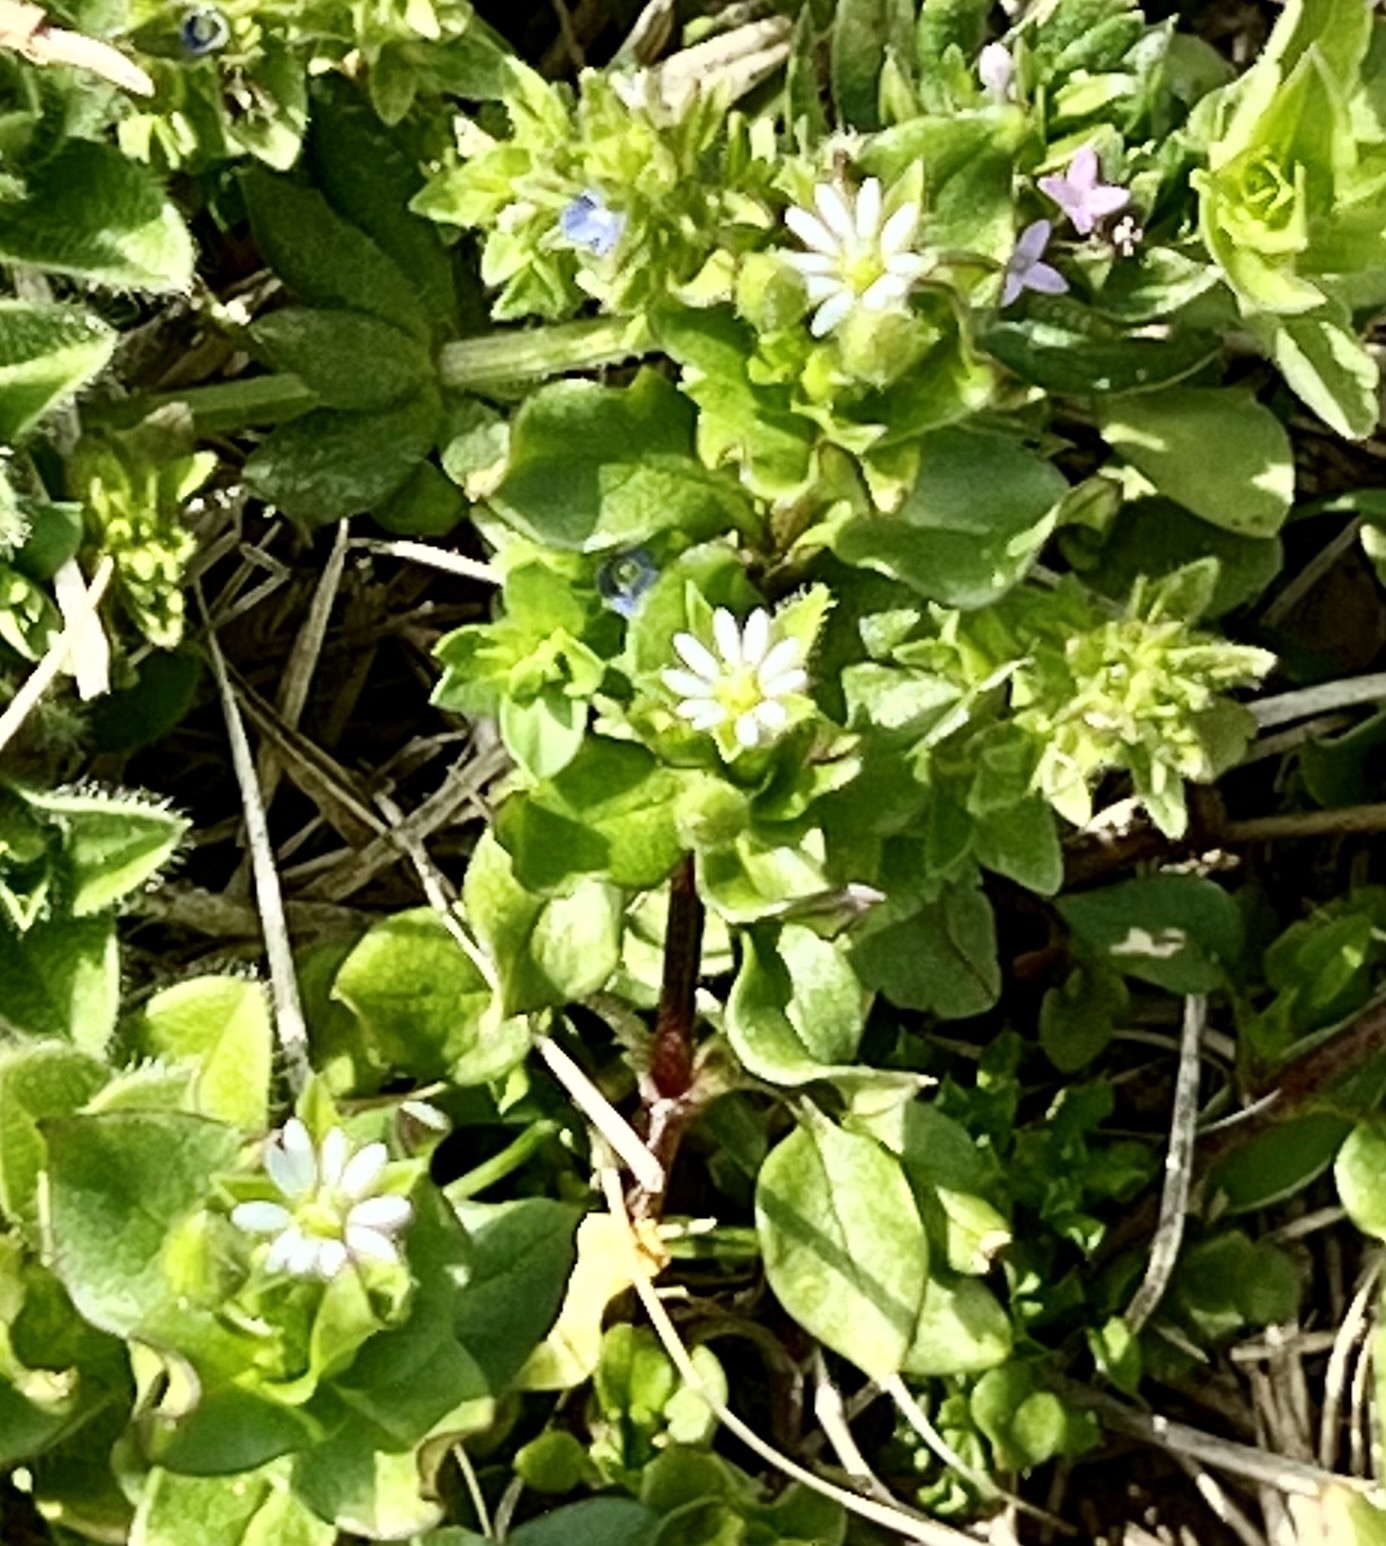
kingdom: Plantae
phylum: Tracheophyta
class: Magnoliopsida
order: Caryophyllales
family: Caryophyllaceae
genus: Stellaria
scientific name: Stellaria media
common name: Common chickweed
